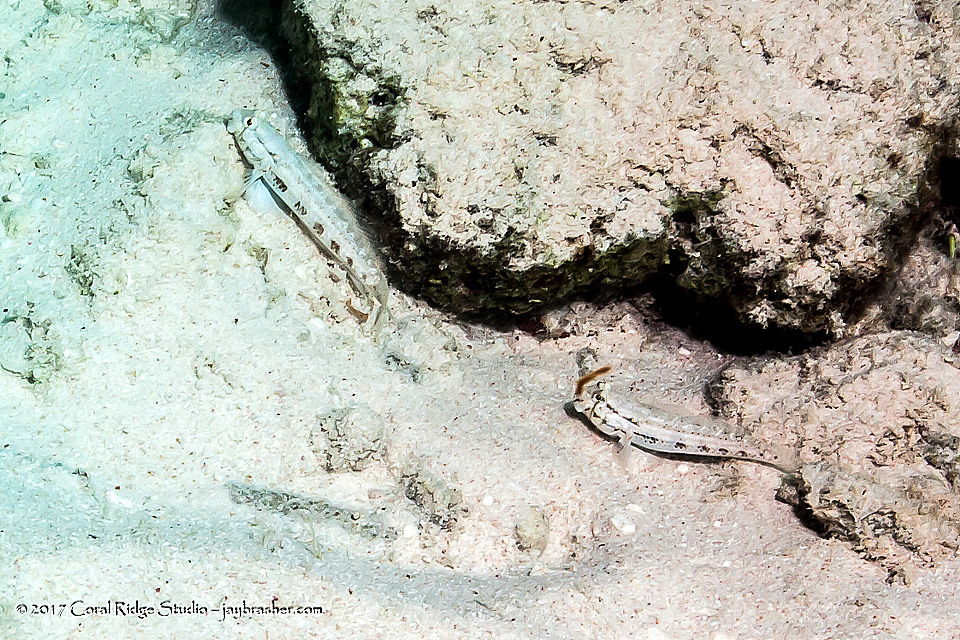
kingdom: Animalia
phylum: Chordata
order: Perciformes
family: Gobiidae
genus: Gnatholepis
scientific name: Gnatholepis thompsoni
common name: Goldspot goby
